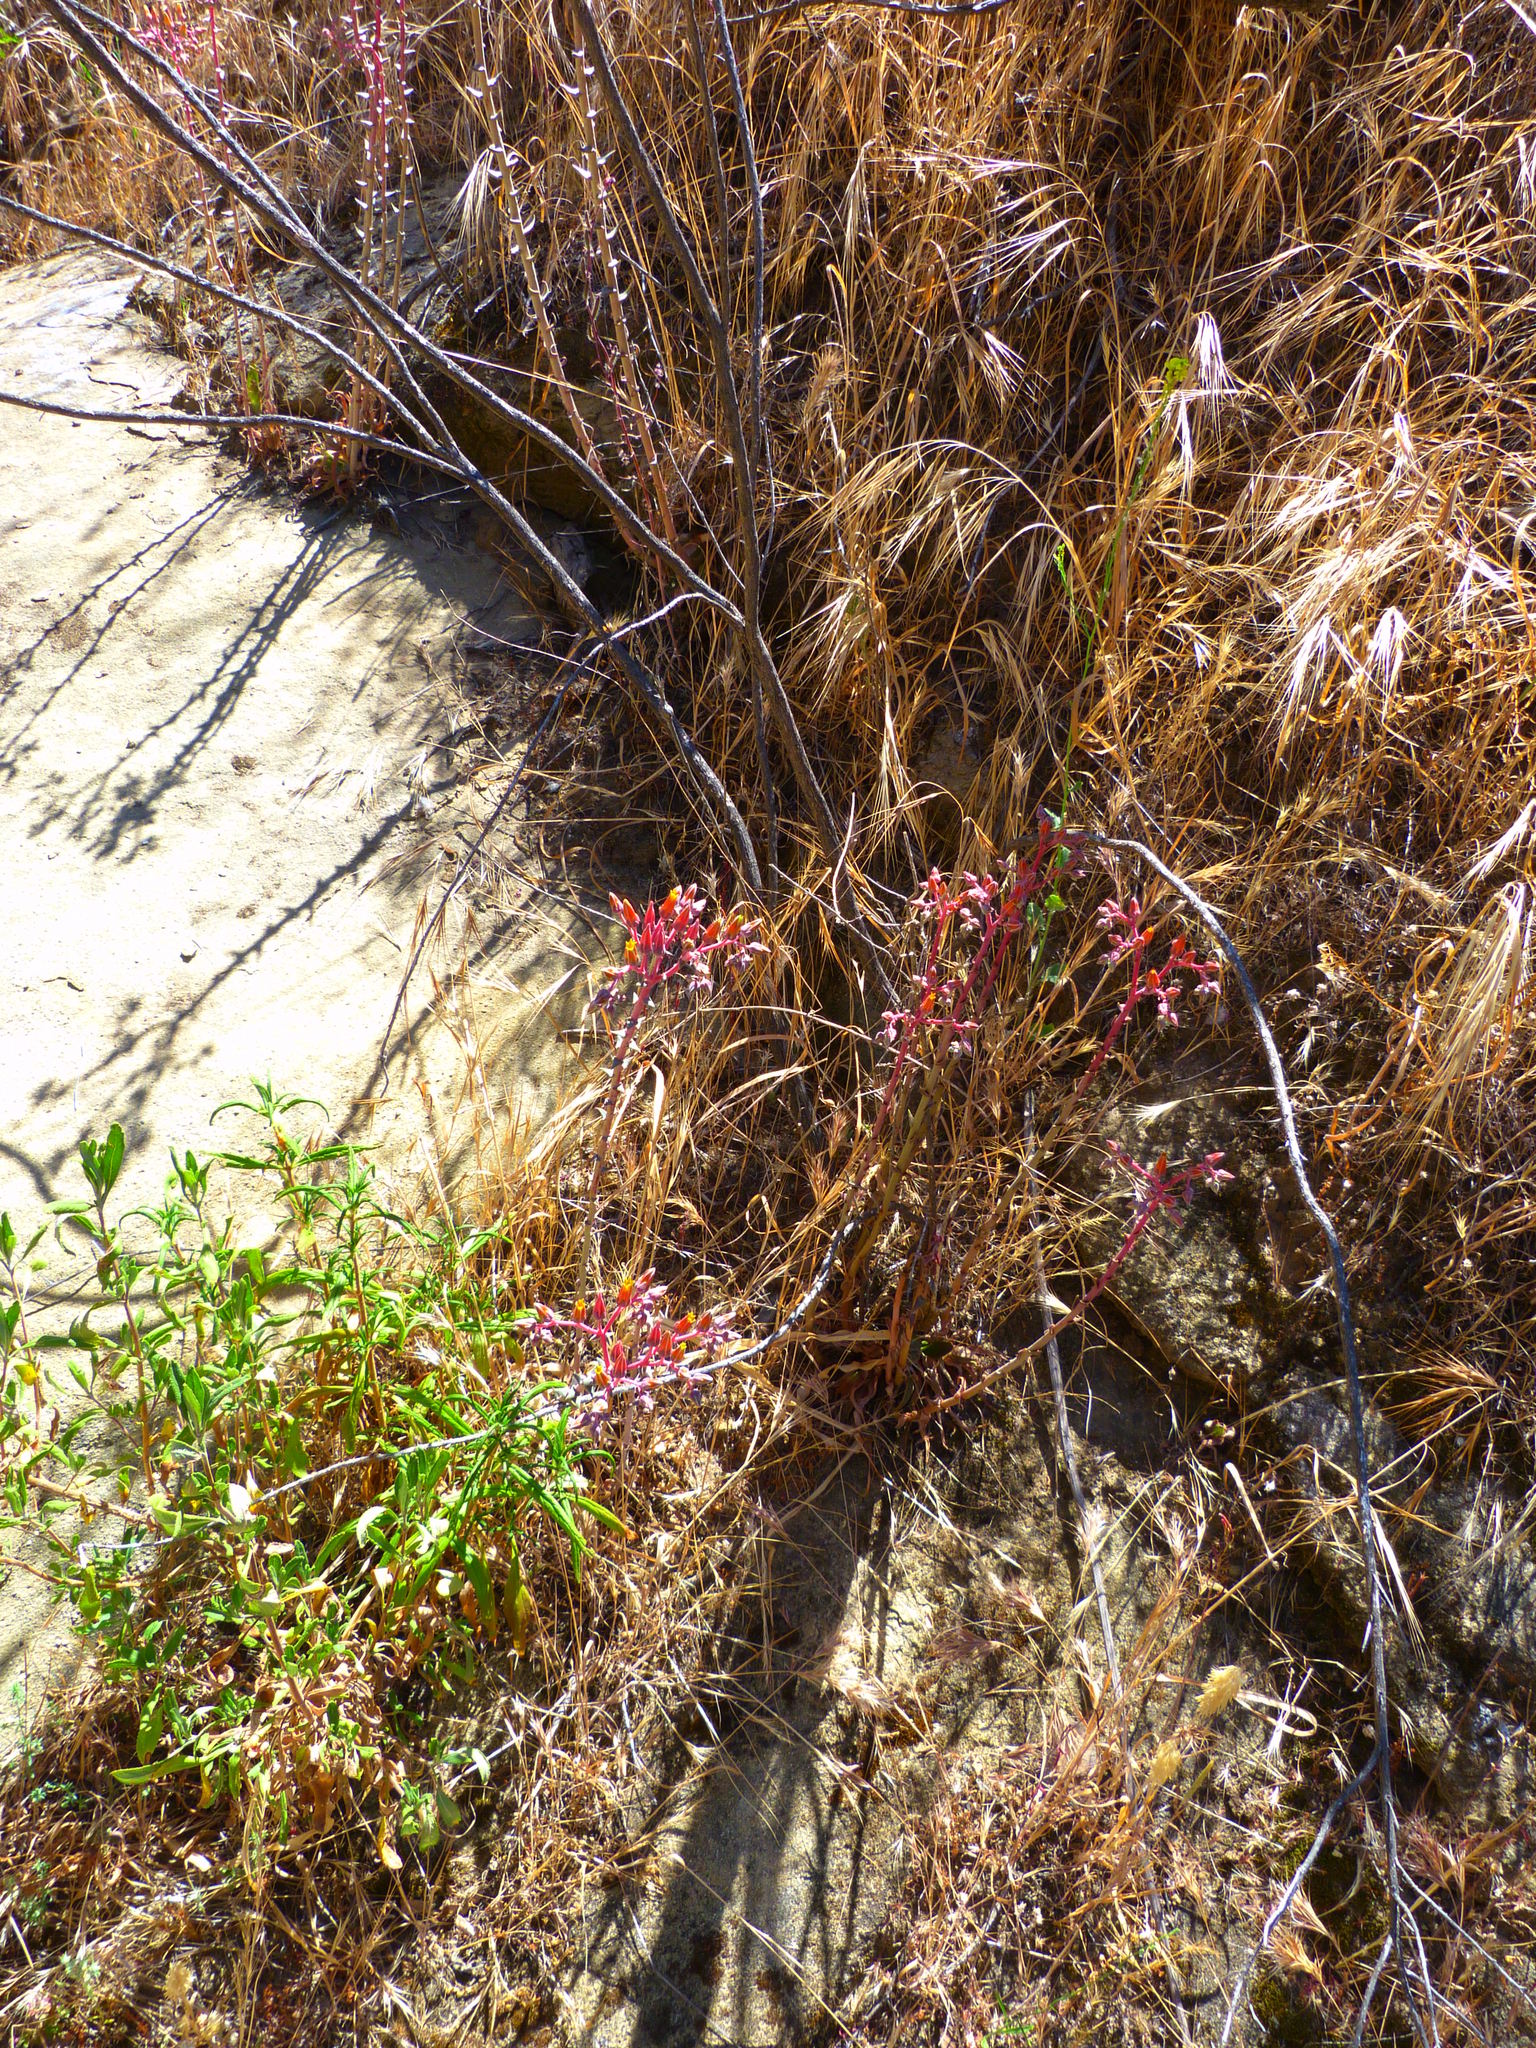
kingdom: Plantae
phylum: Tracheophyta
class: Magnoliopsida
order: Saxifragales
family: Crassulaceae
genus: Dudleya
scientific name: Dudleya lanceolata
